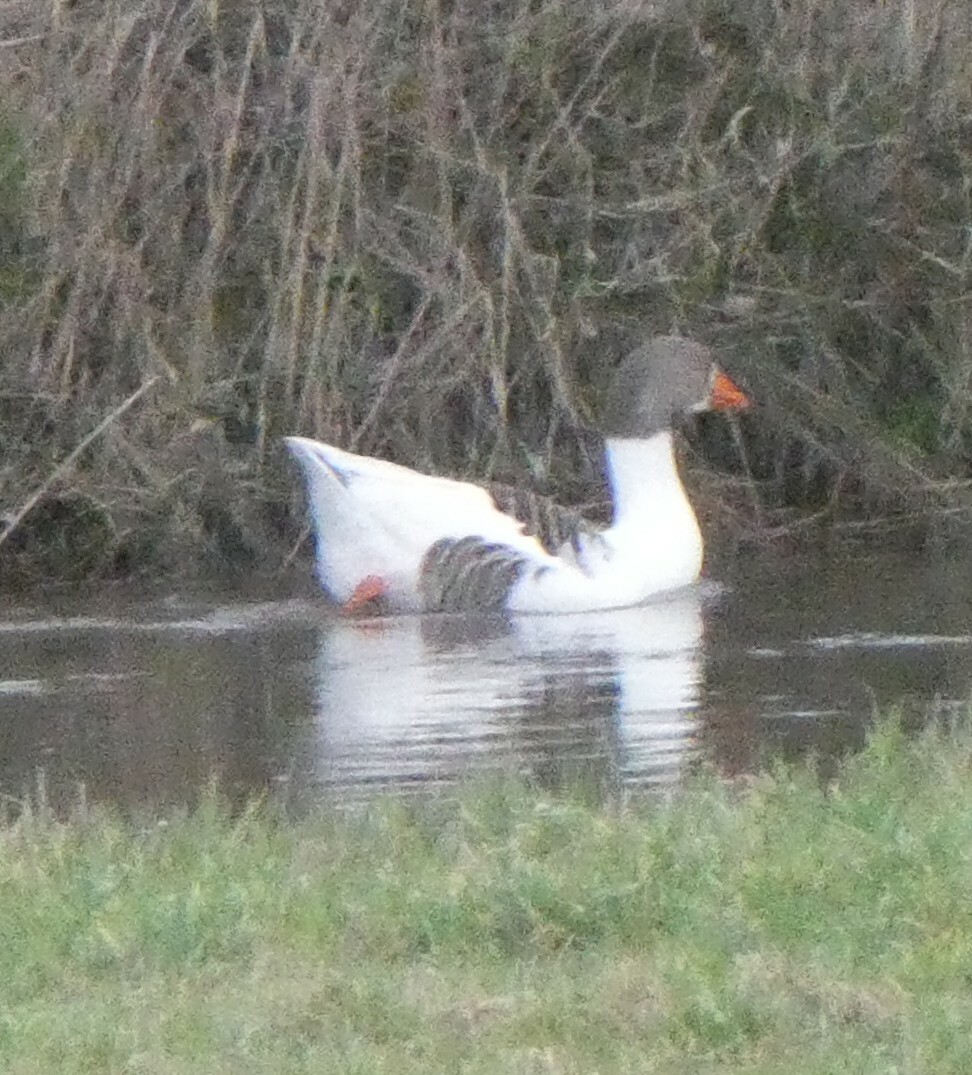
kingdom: Animalia
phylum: Chordata
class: Aves
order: Anseriformes
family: Anatidae
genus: Anser
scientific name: Anser anser
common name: Greylag goose
